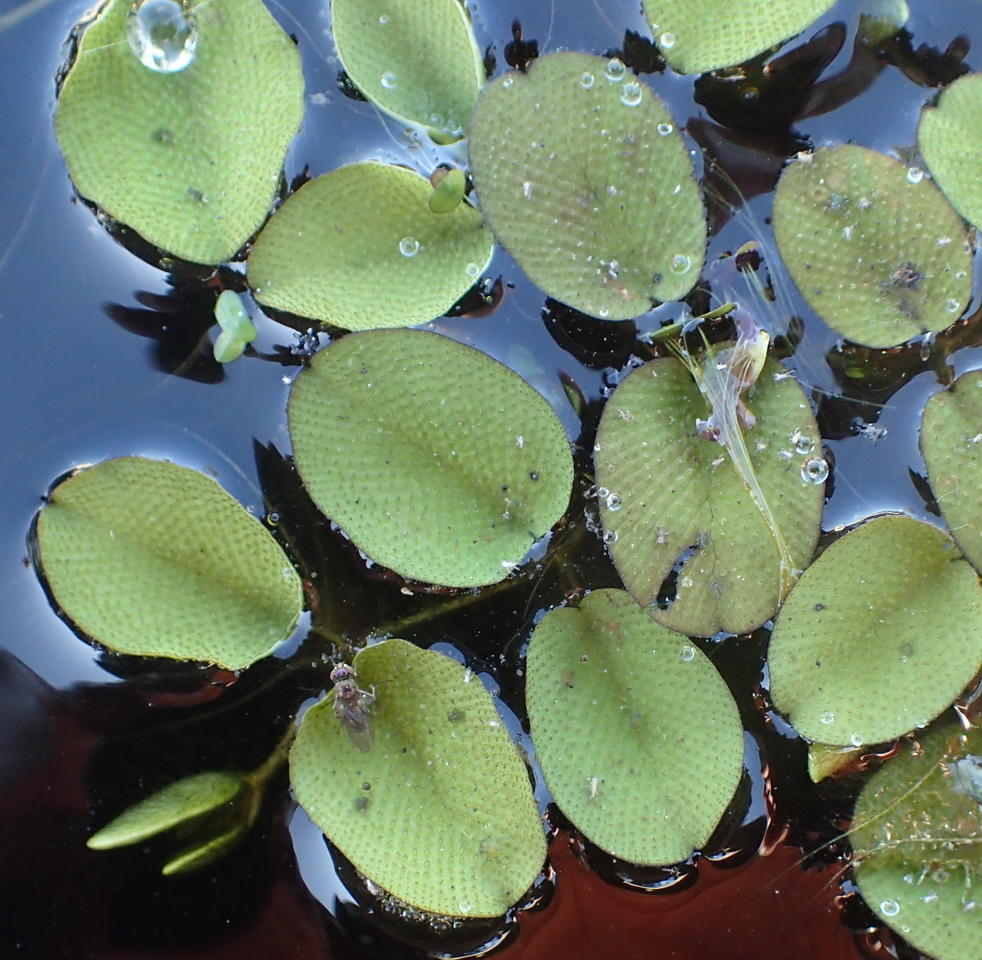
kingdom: Plantae
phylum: Tracheophyta
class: Polypodiopsida
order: Salviniales
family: Salviniaceae
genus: Salvinia
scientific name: Salvinia molesta
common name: Kariba weed
